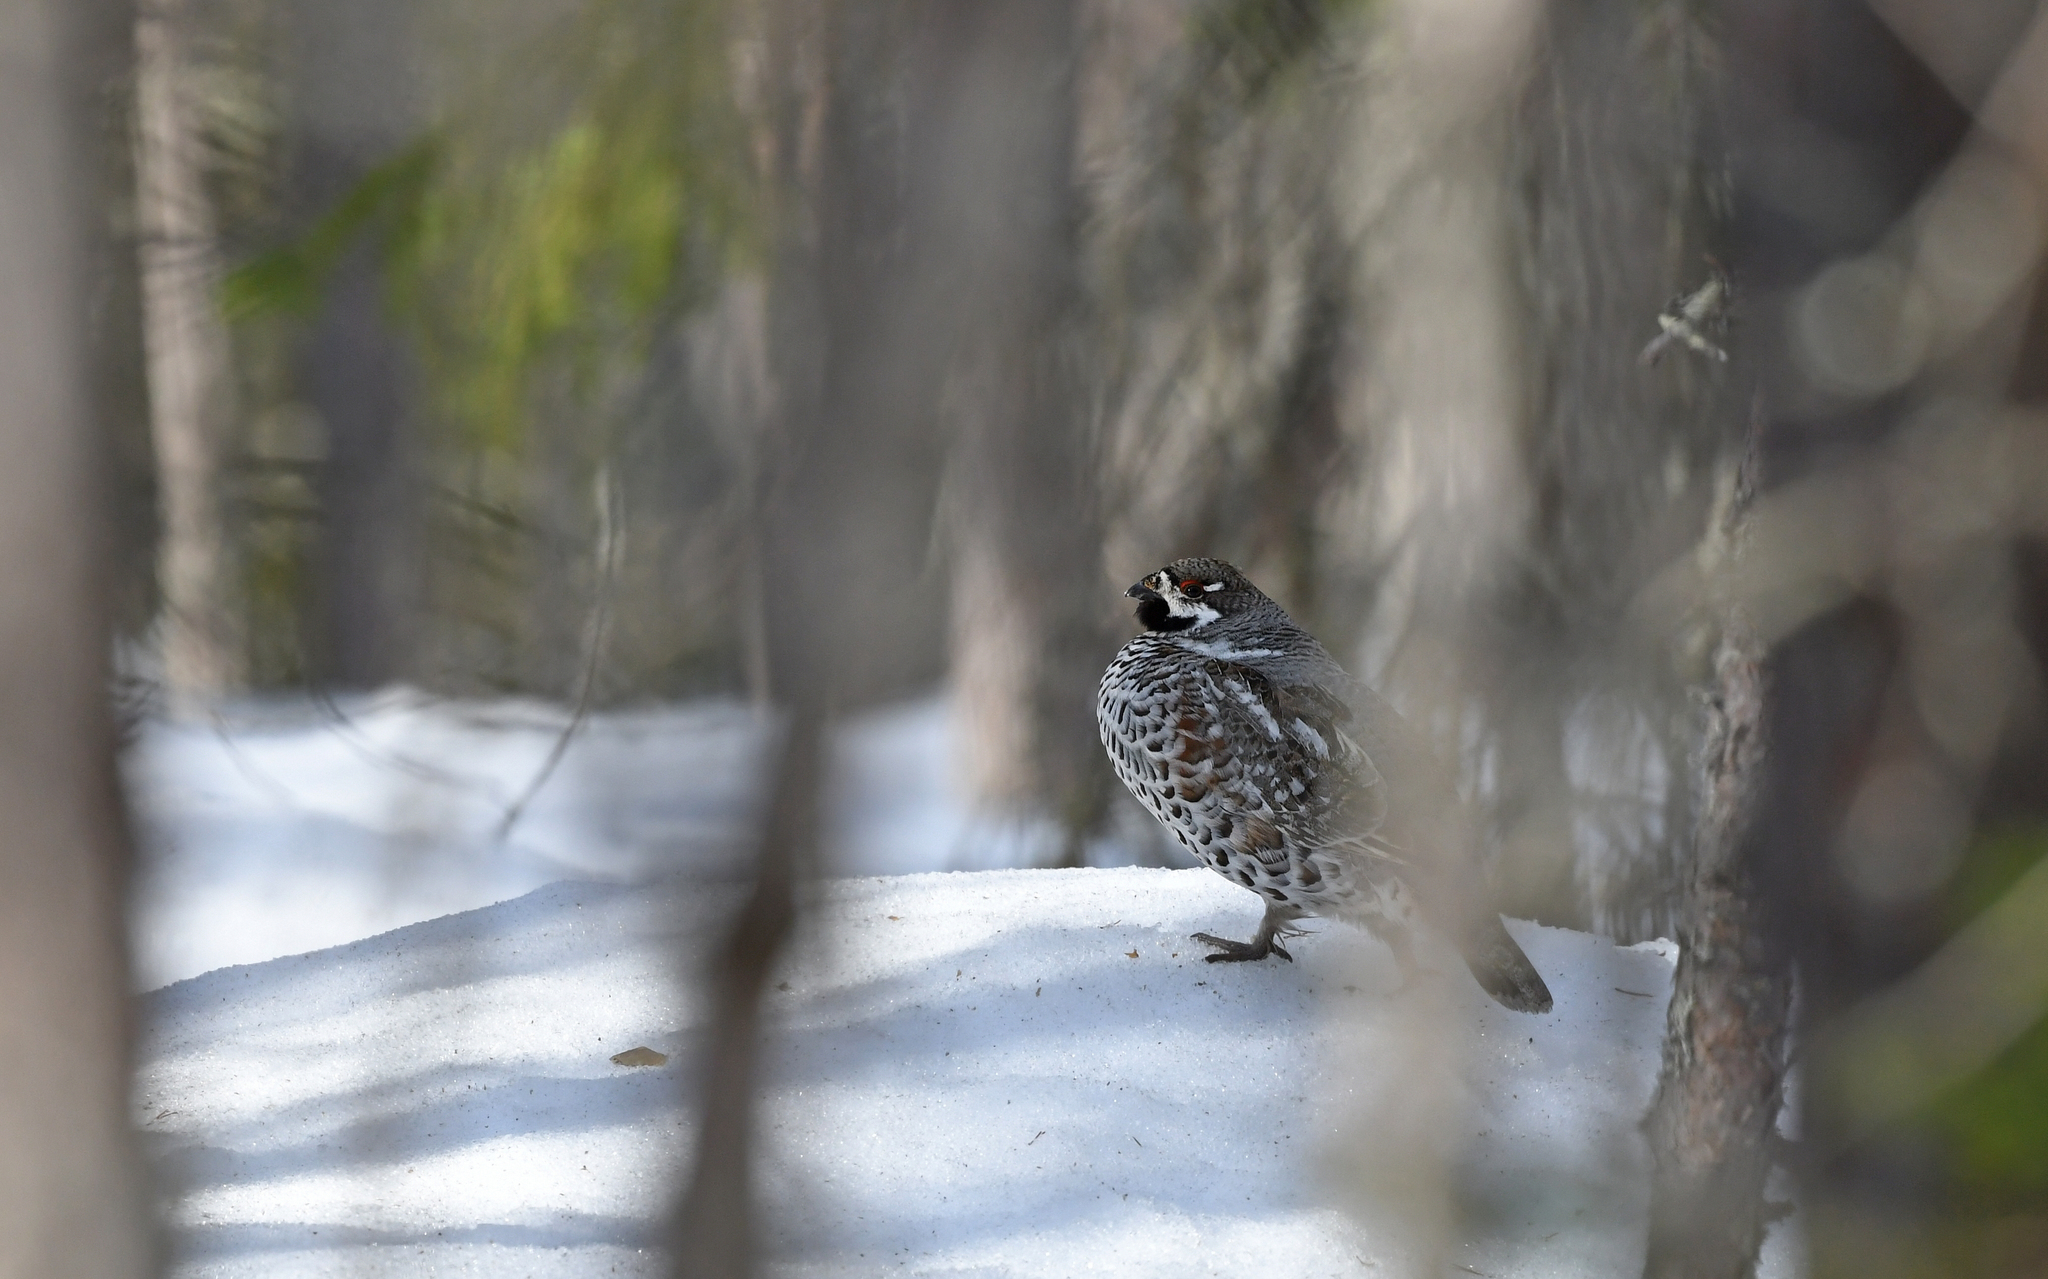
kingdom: Animalia
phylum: Chordata
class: Aves
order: Galliformes
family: Phasianidae
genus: Tetrastes
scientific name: Tetrastes bonasia
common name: Hazel grouse
